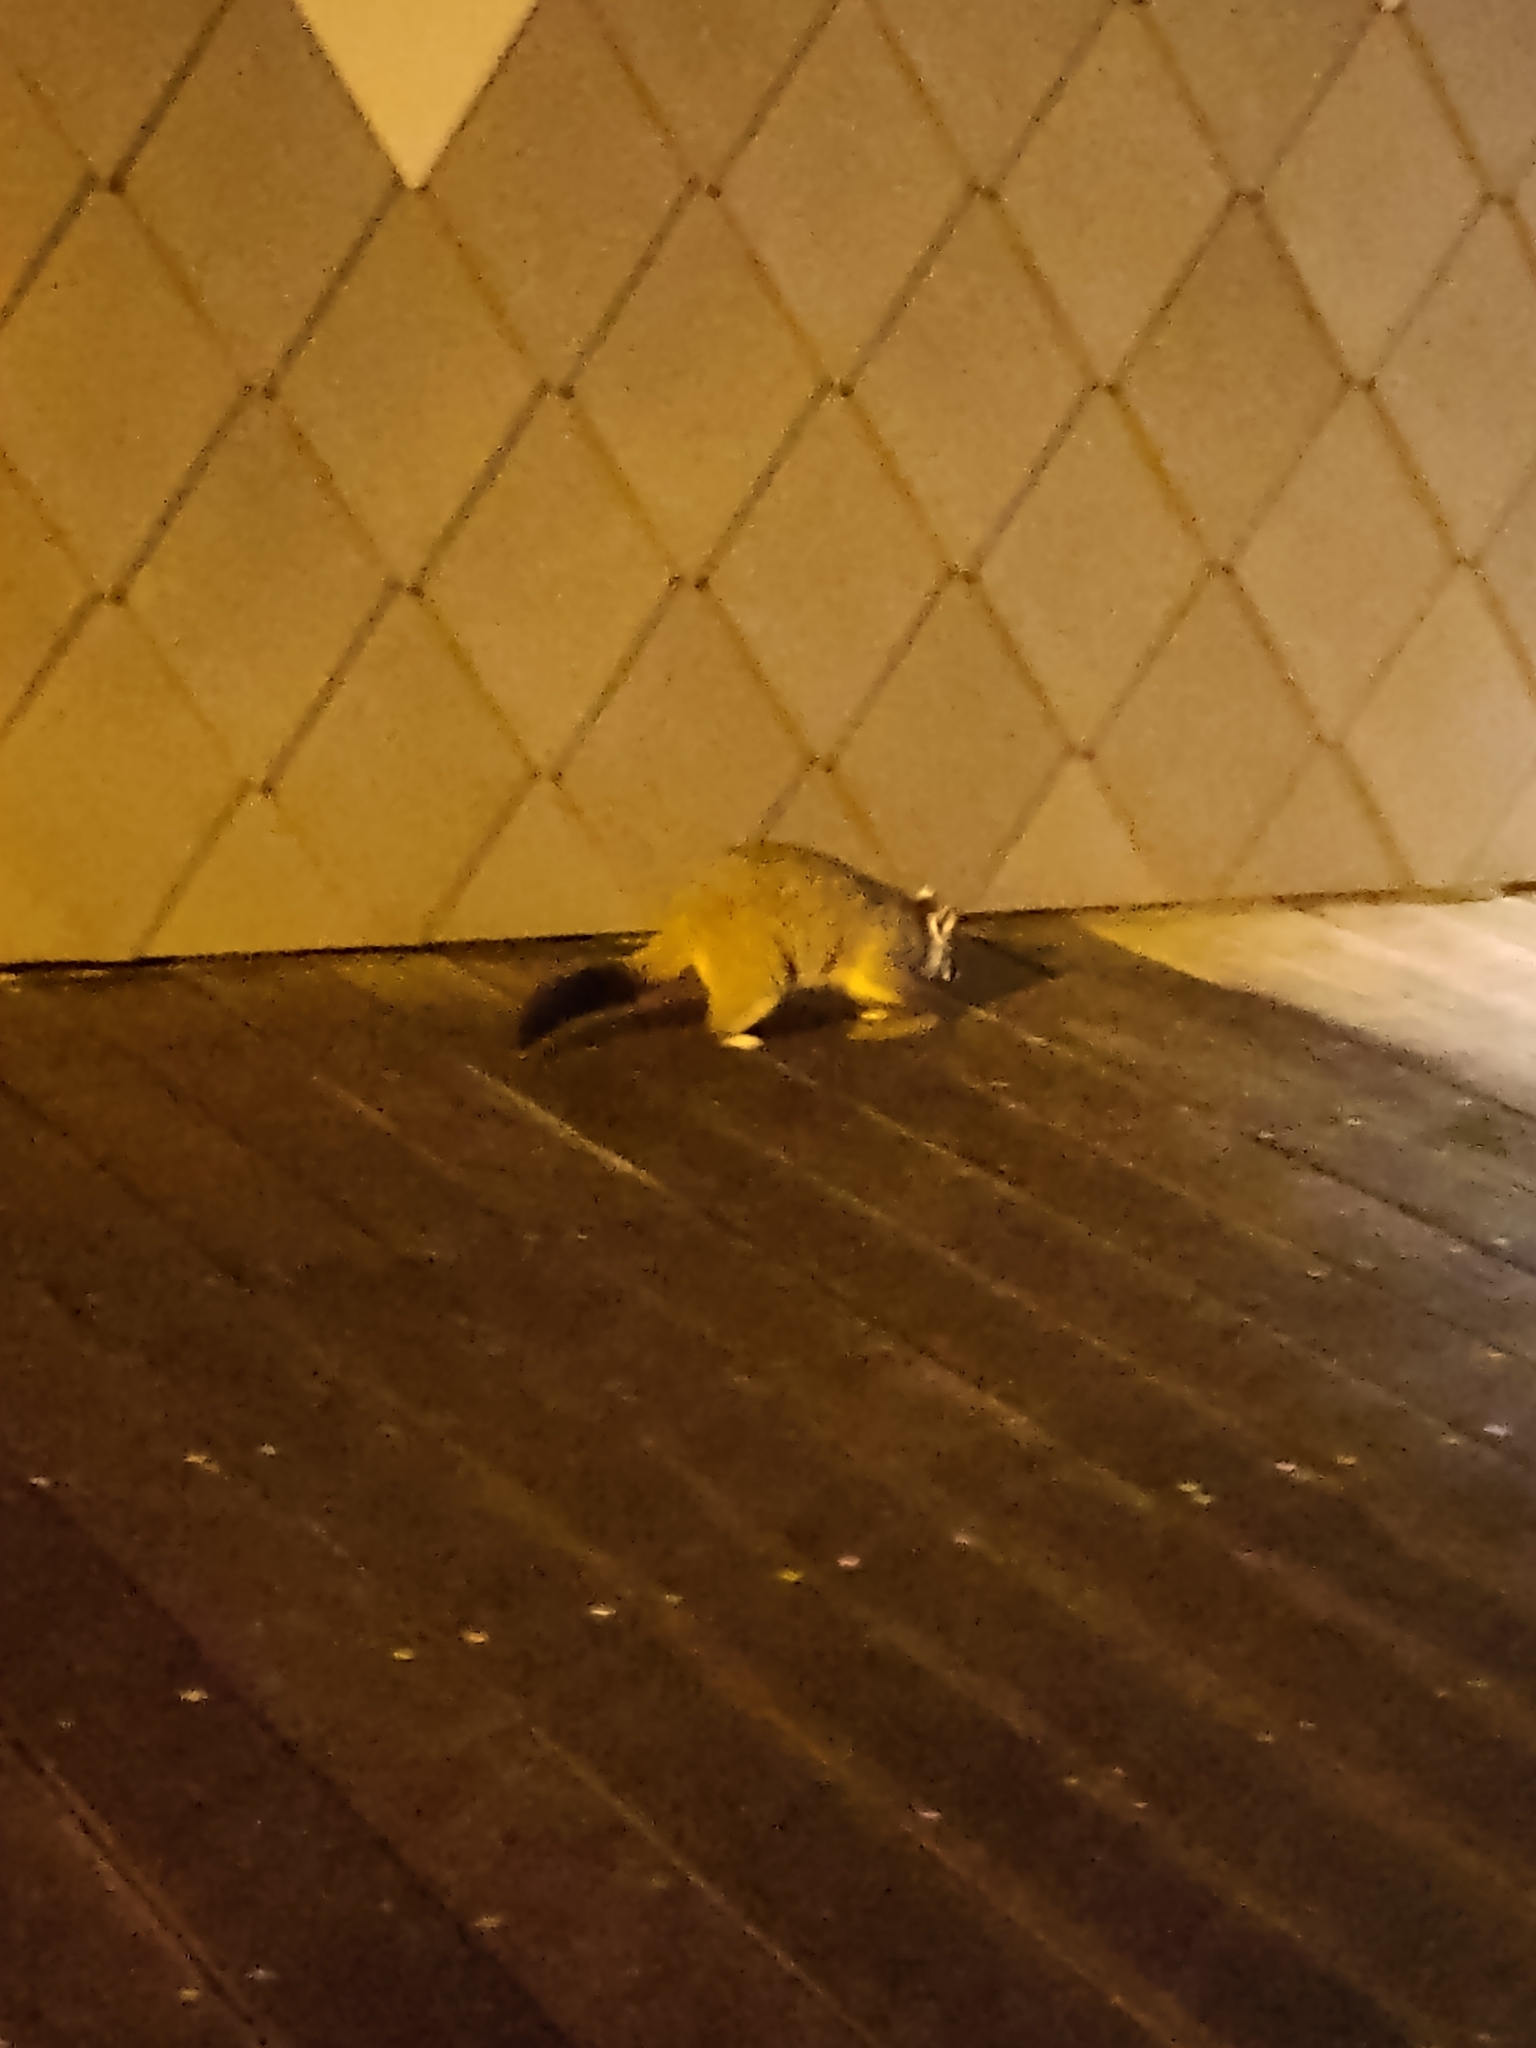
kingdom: Animalia
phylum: Chordata
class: Mammalia
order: Diprotodontia
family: Phalangeridae
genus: Trichosurus
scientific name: Trichosurus vulpecula
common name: Common brushtail
